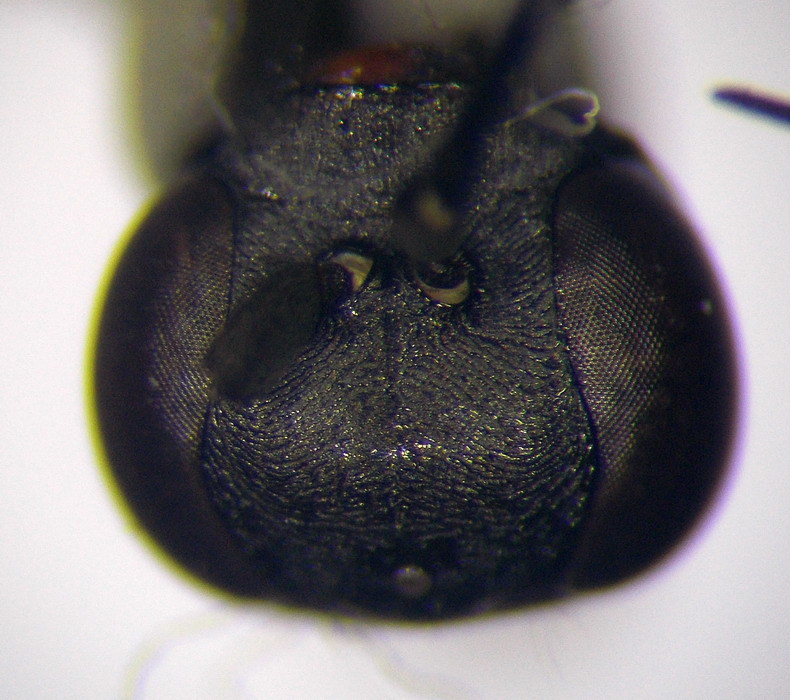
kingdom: Animalia
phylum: Arthropoda
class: Insecta
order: Hymenoptera
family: Pompilidae
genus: Aporinellus
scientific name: Aporinellus sexmaculatus
